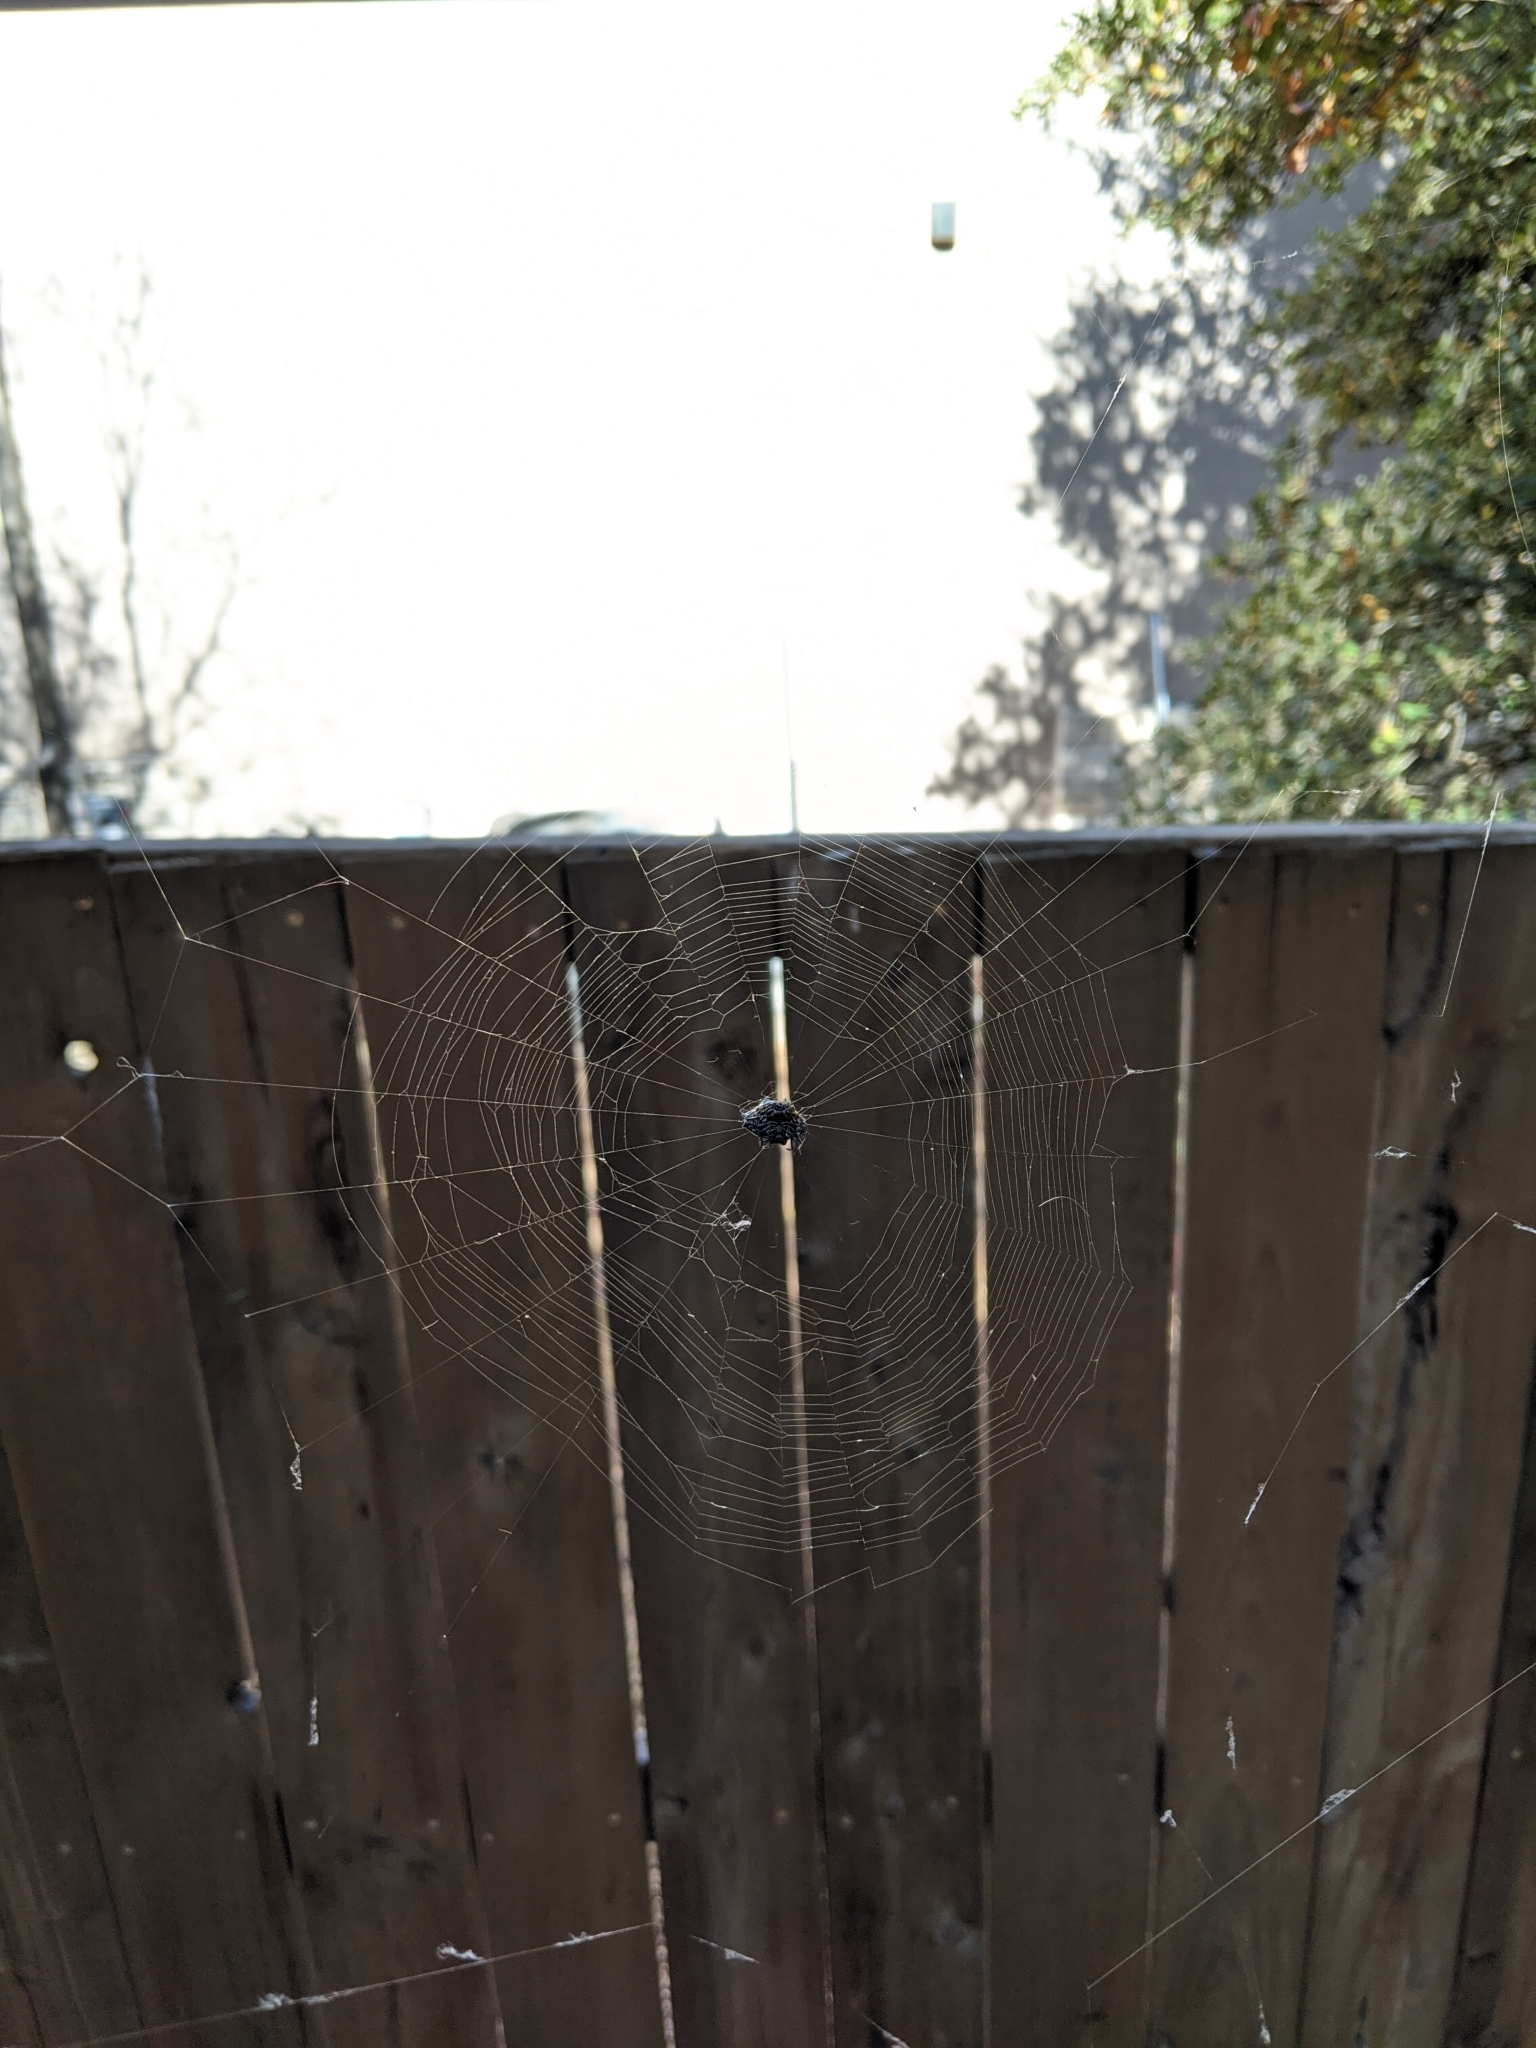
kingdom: Animalia
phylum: Arthropoda
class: Arachnida
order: Araneae
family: Araneidae
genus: Gasteracantha
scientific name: Gasteracantha cancriformis
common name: Orb weavers
